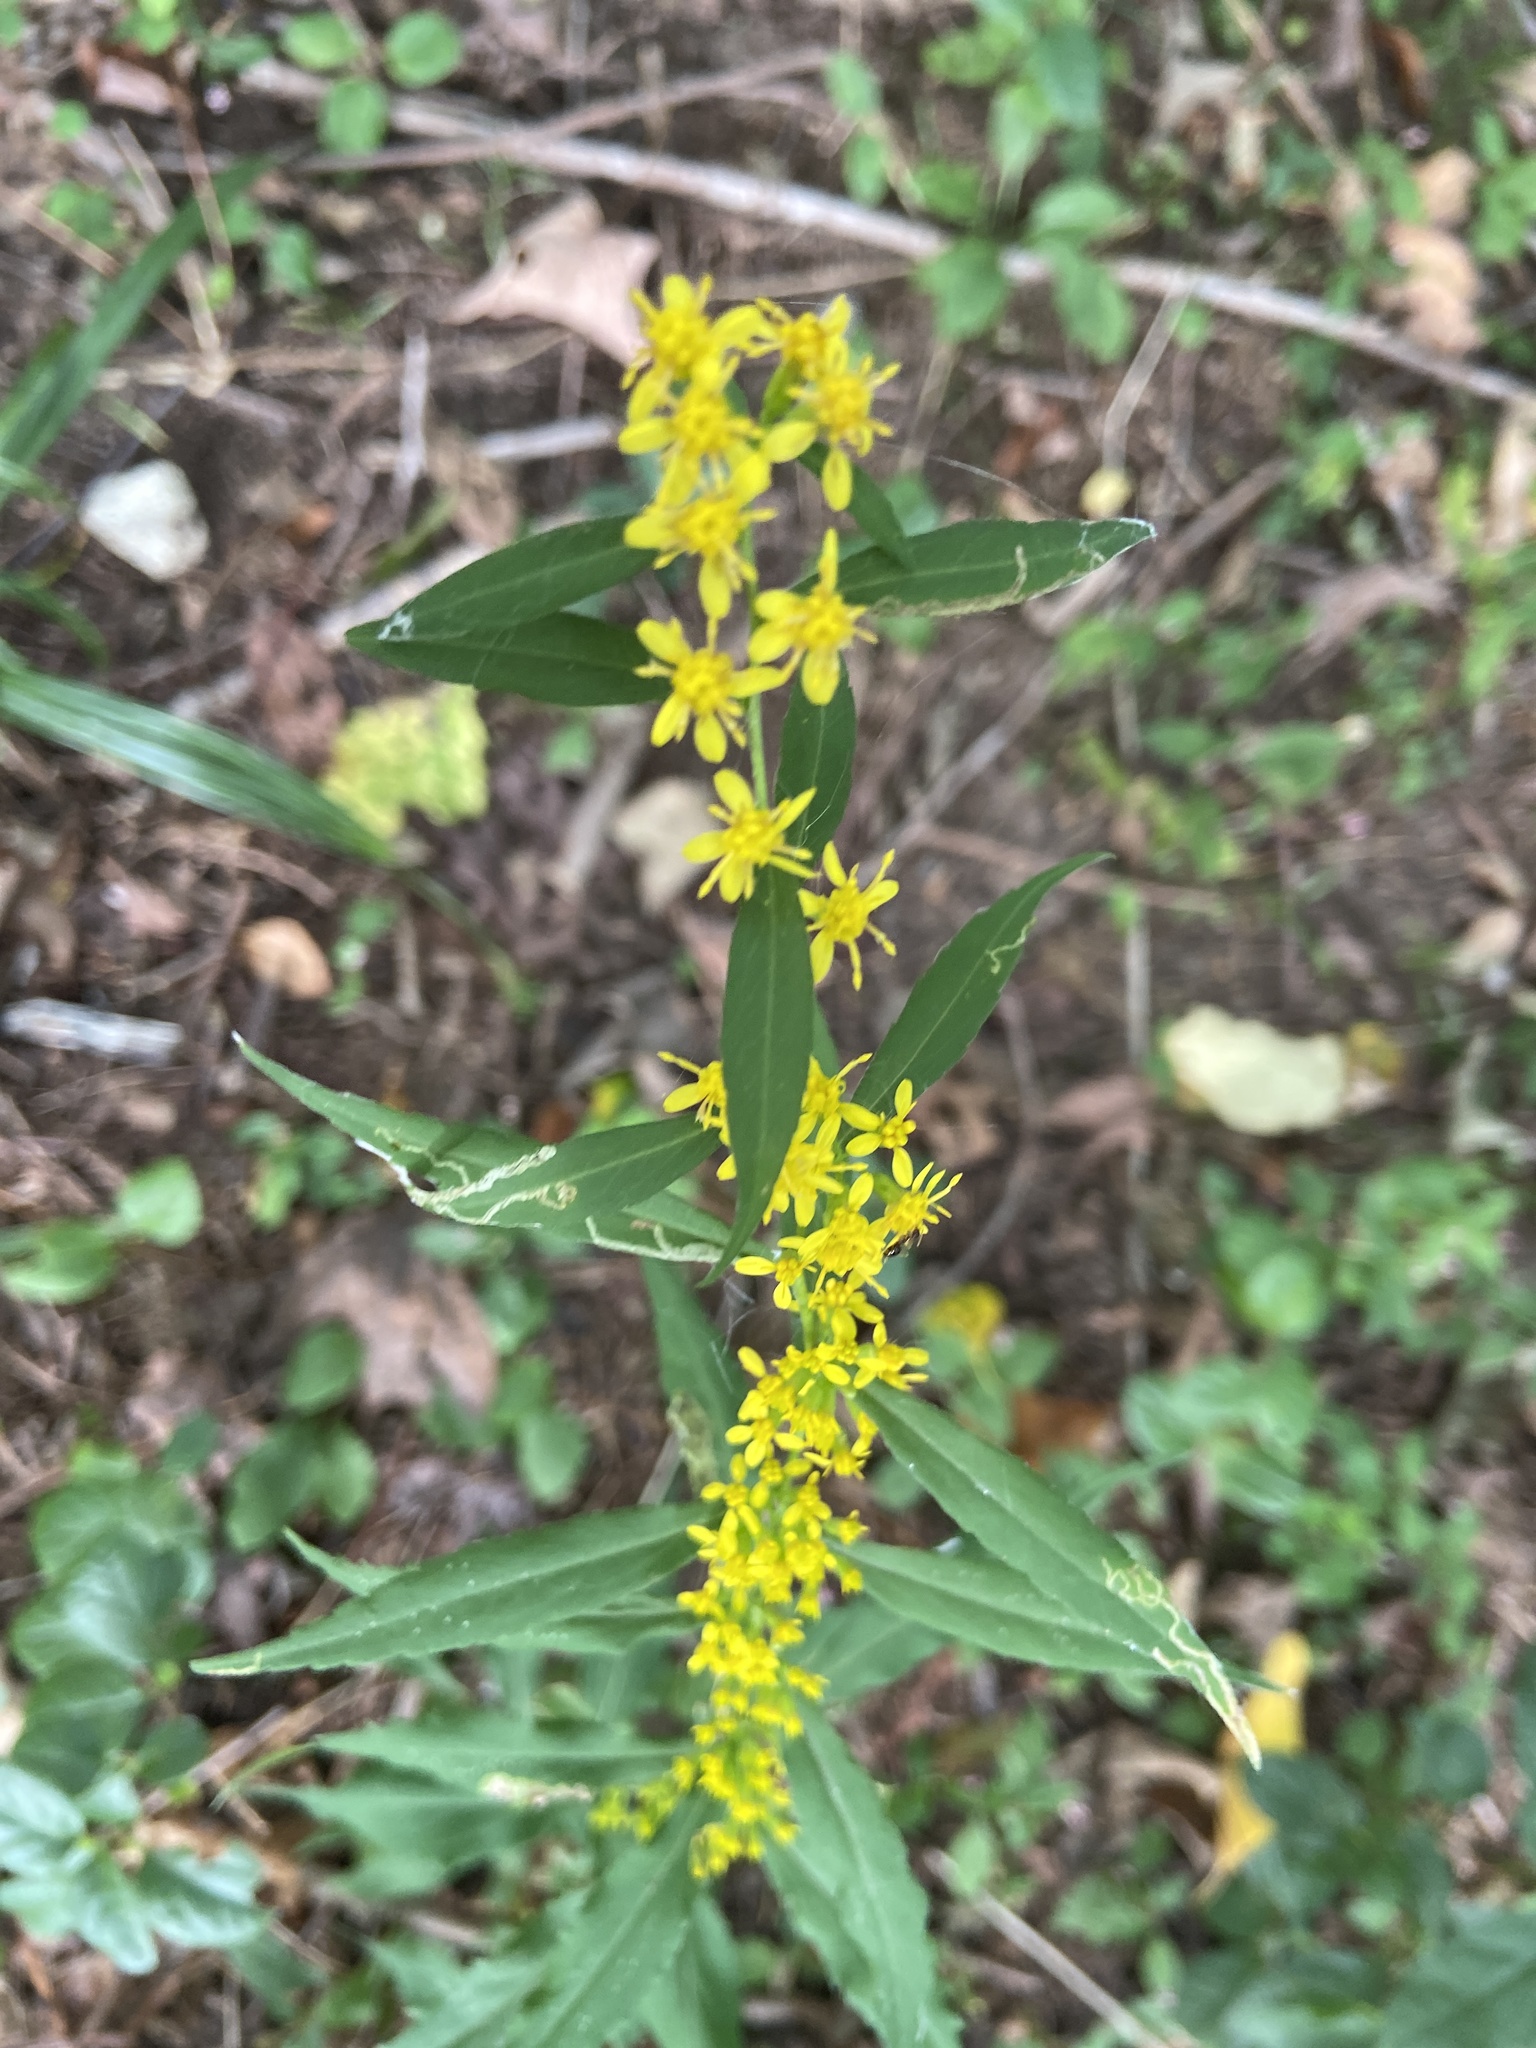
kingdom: Plantae
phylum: Tracheophyta
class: Magnoliopsida
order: Asterales
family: Asteraceae
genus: Solidago
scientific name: Solidago caesia
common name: Woodland goldenrod
